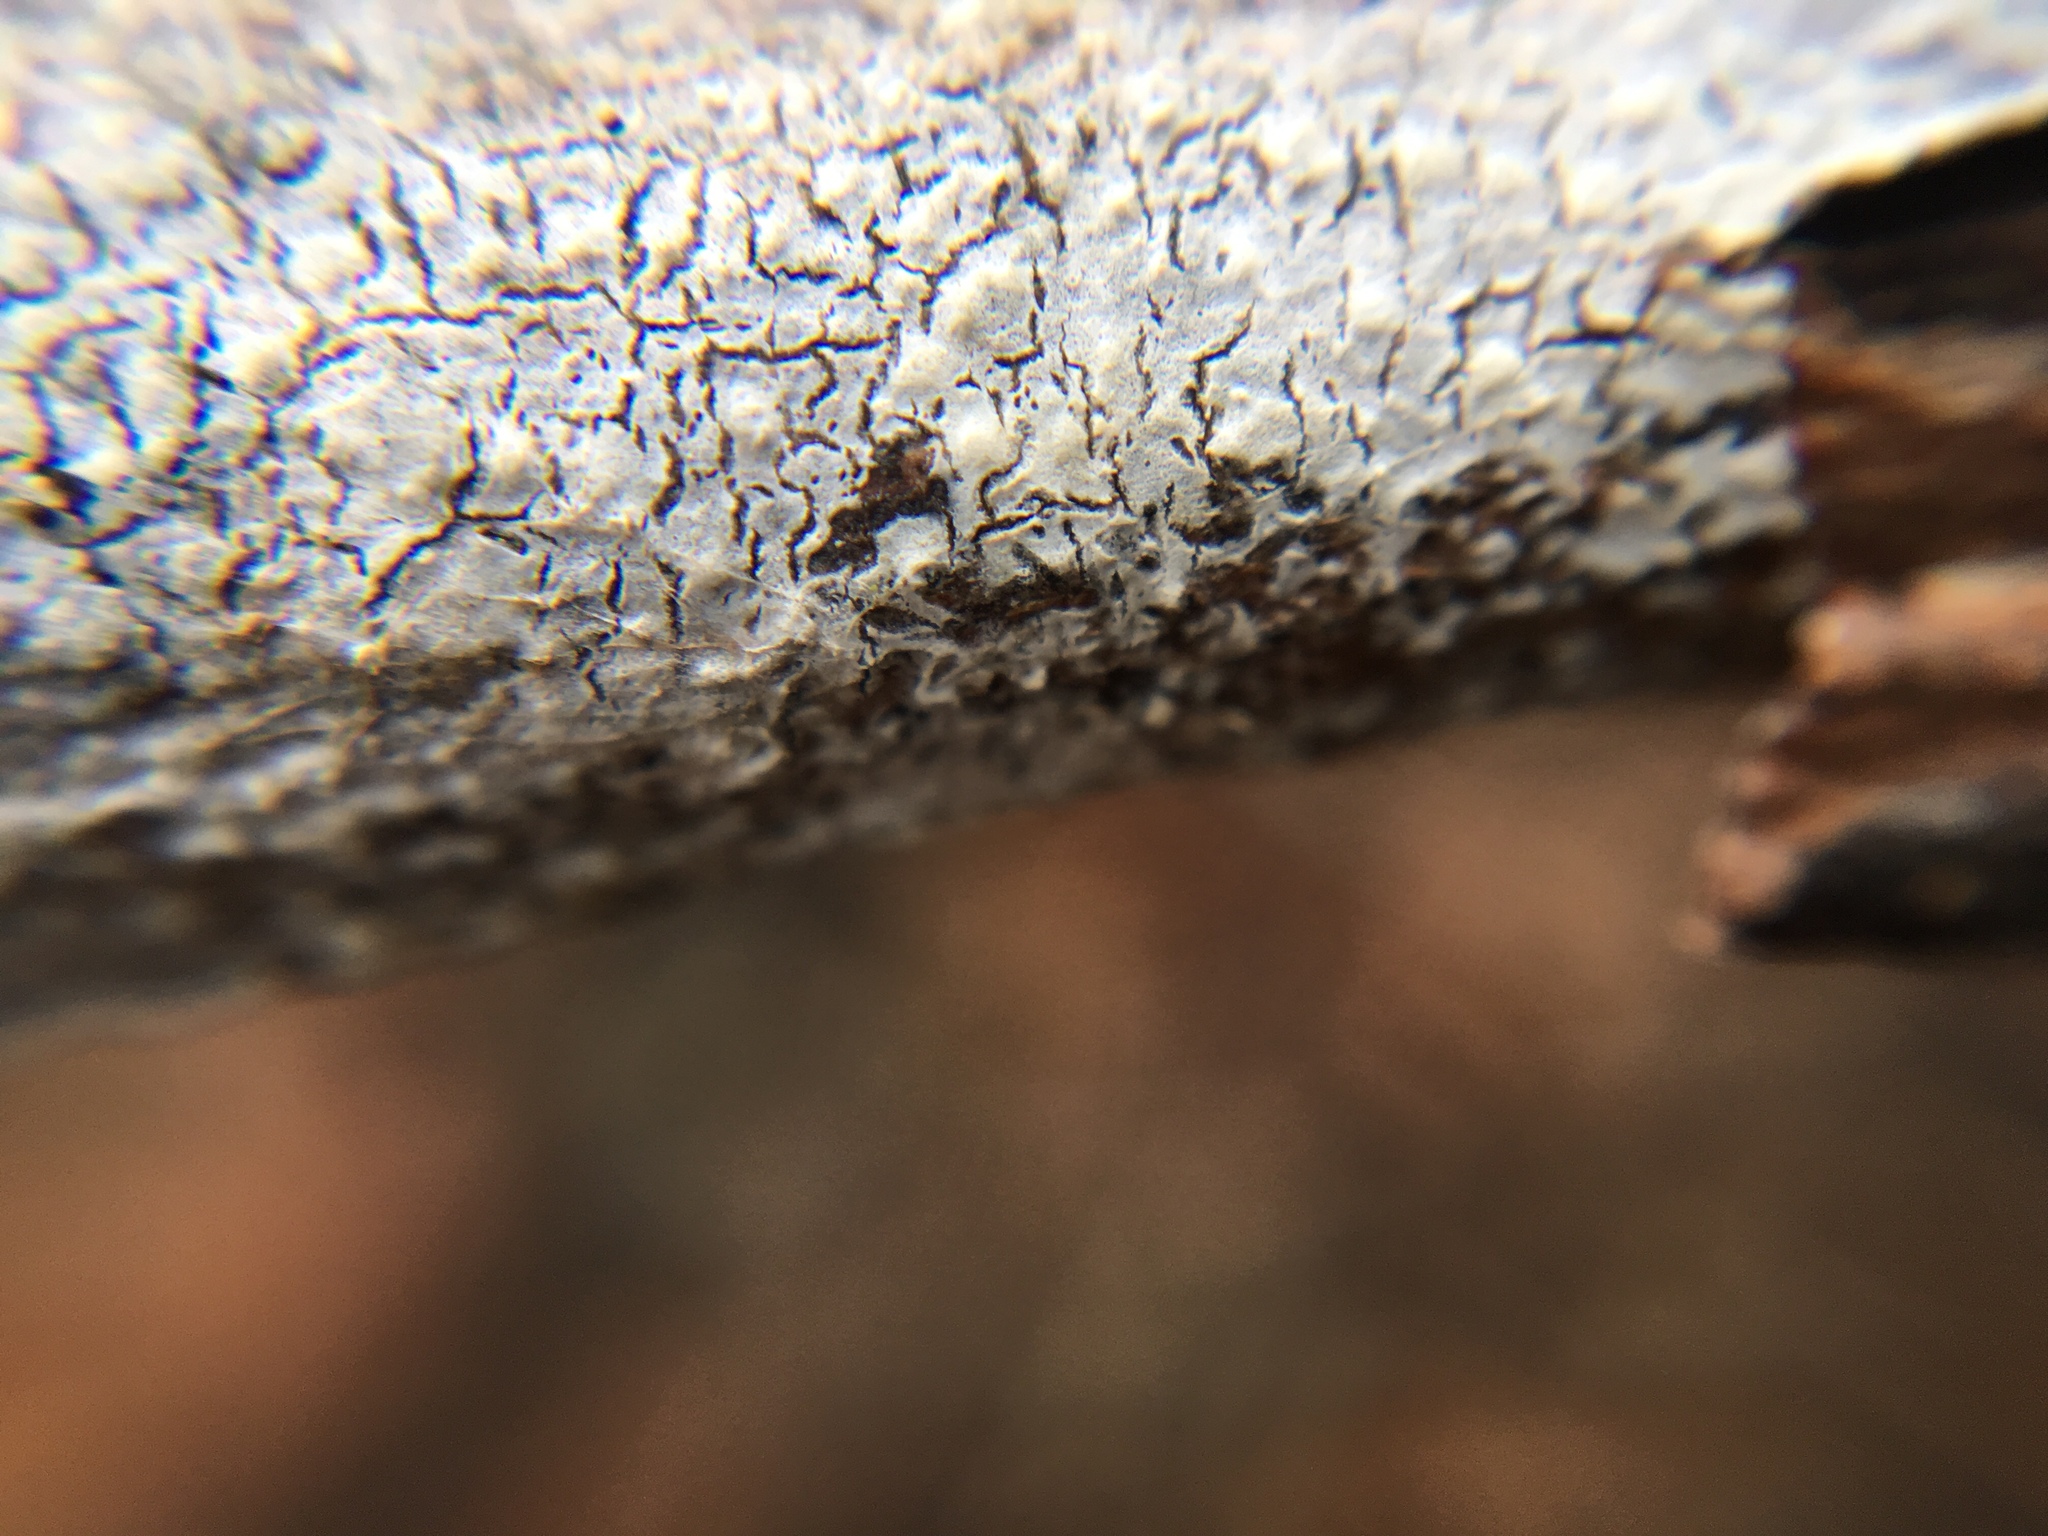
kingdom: Fungi
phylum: Basidiomycota
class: Agaricomycetes
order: Russulales
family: Peniophoraceae
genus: Peniophora
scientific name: Peniophora cinerea
